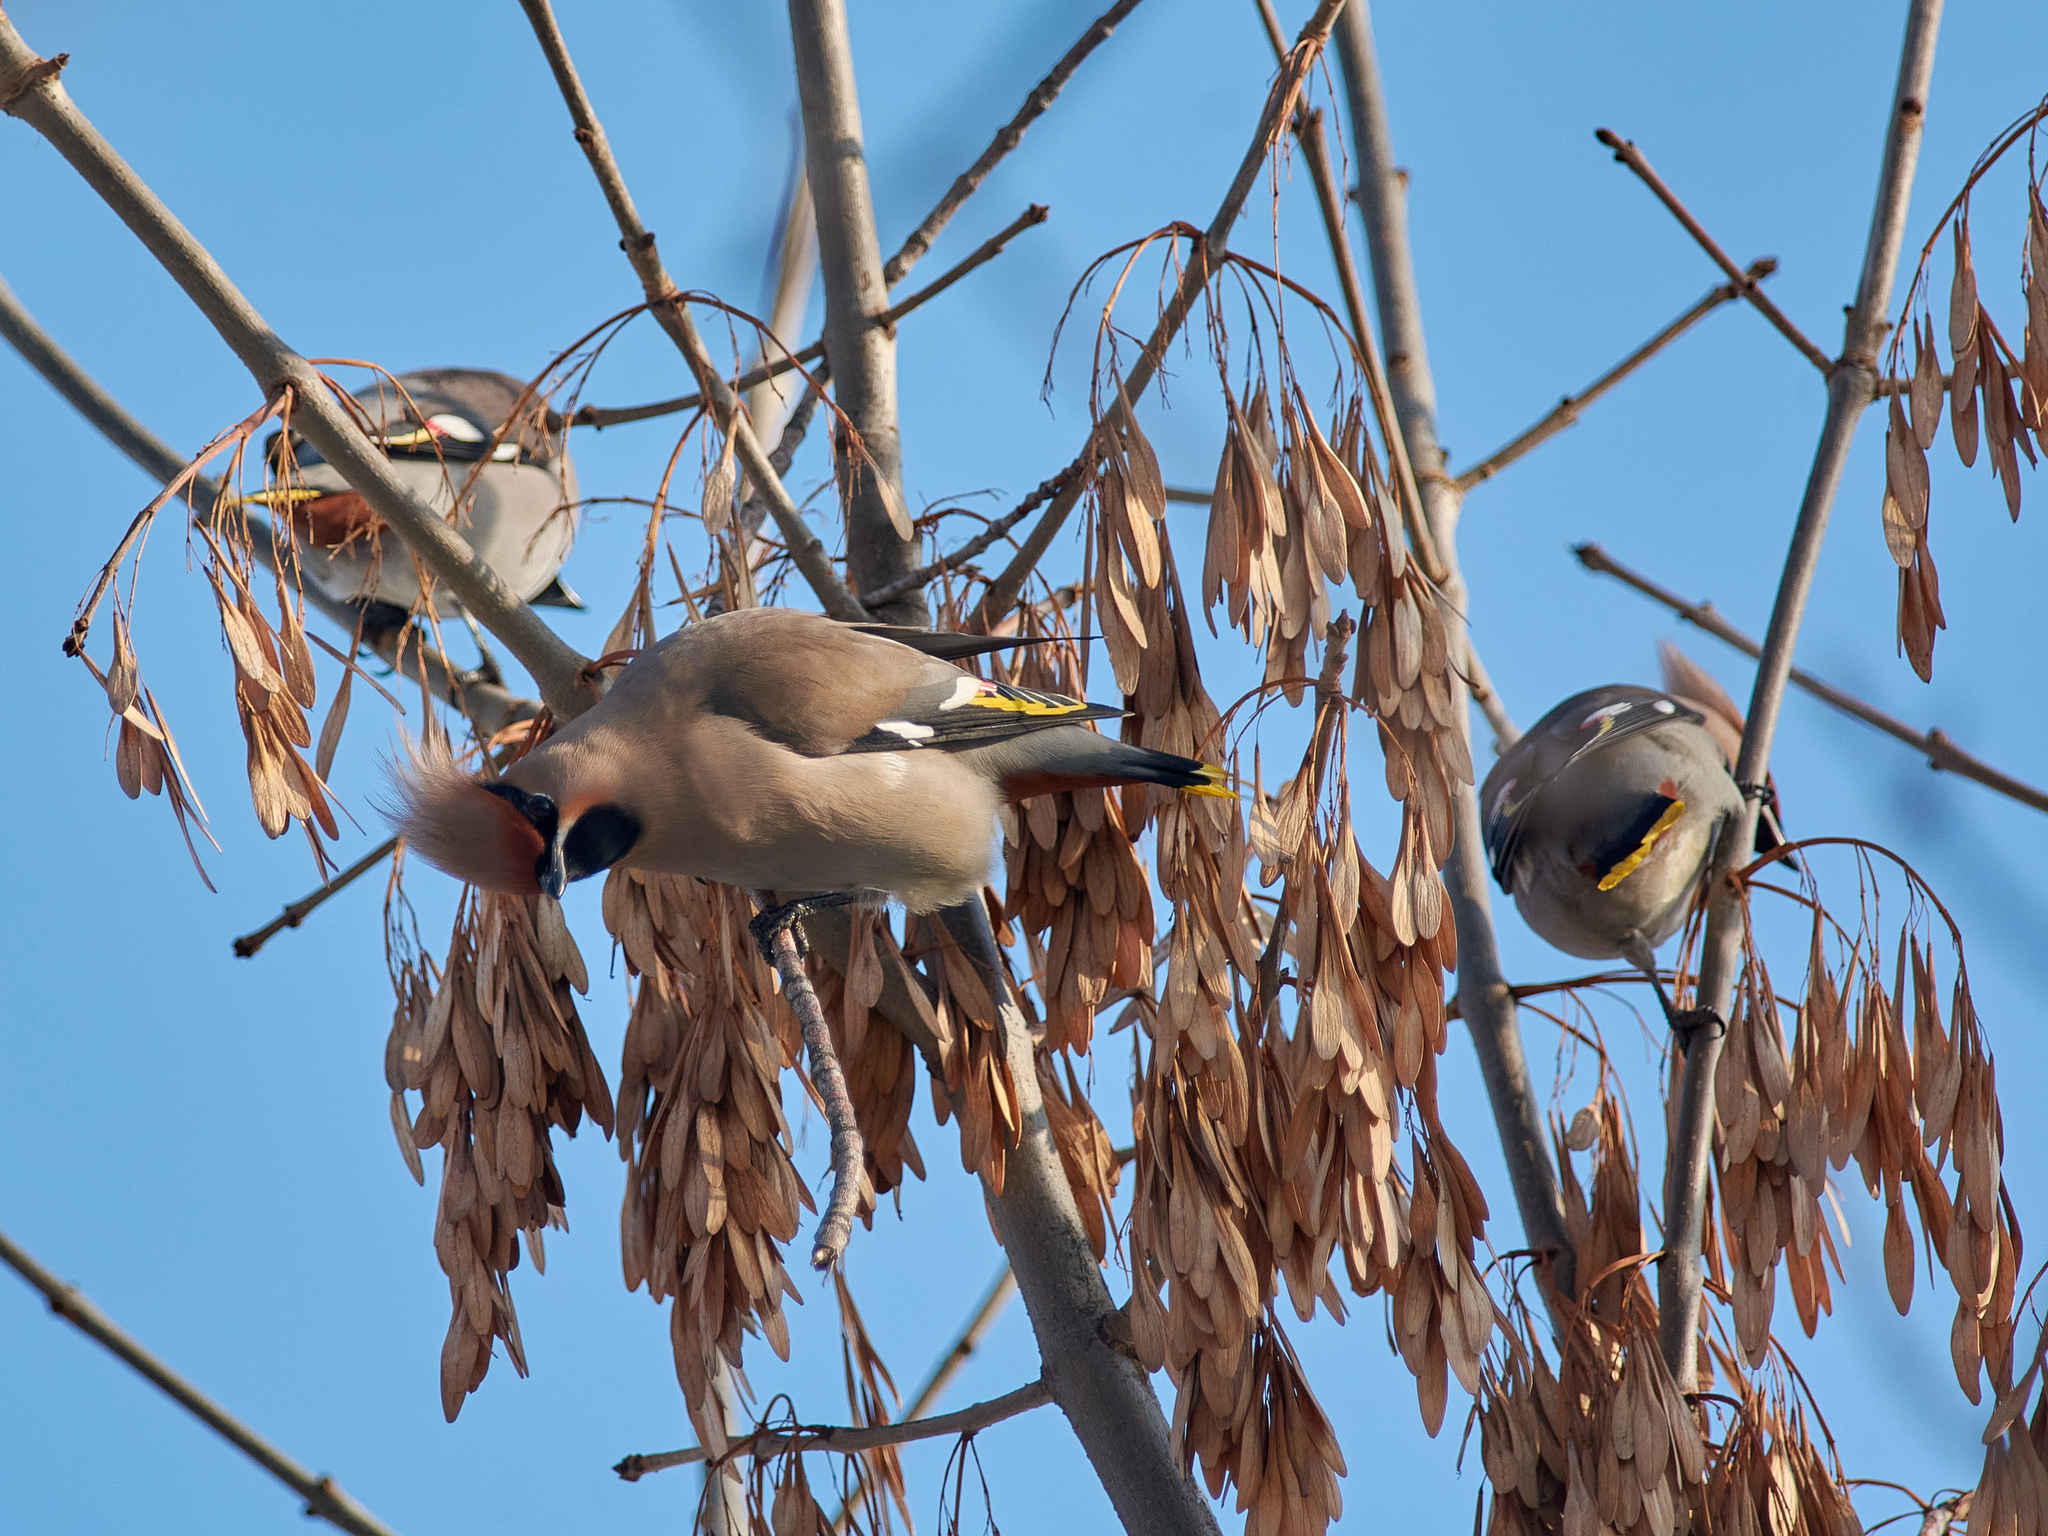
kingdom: Animalia
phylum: Chordata
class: Aves
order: Passeriformes
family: Bombycillidae
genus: Bombycilla
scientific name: Bombycilla garrulus
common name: Bohemian waxwing
